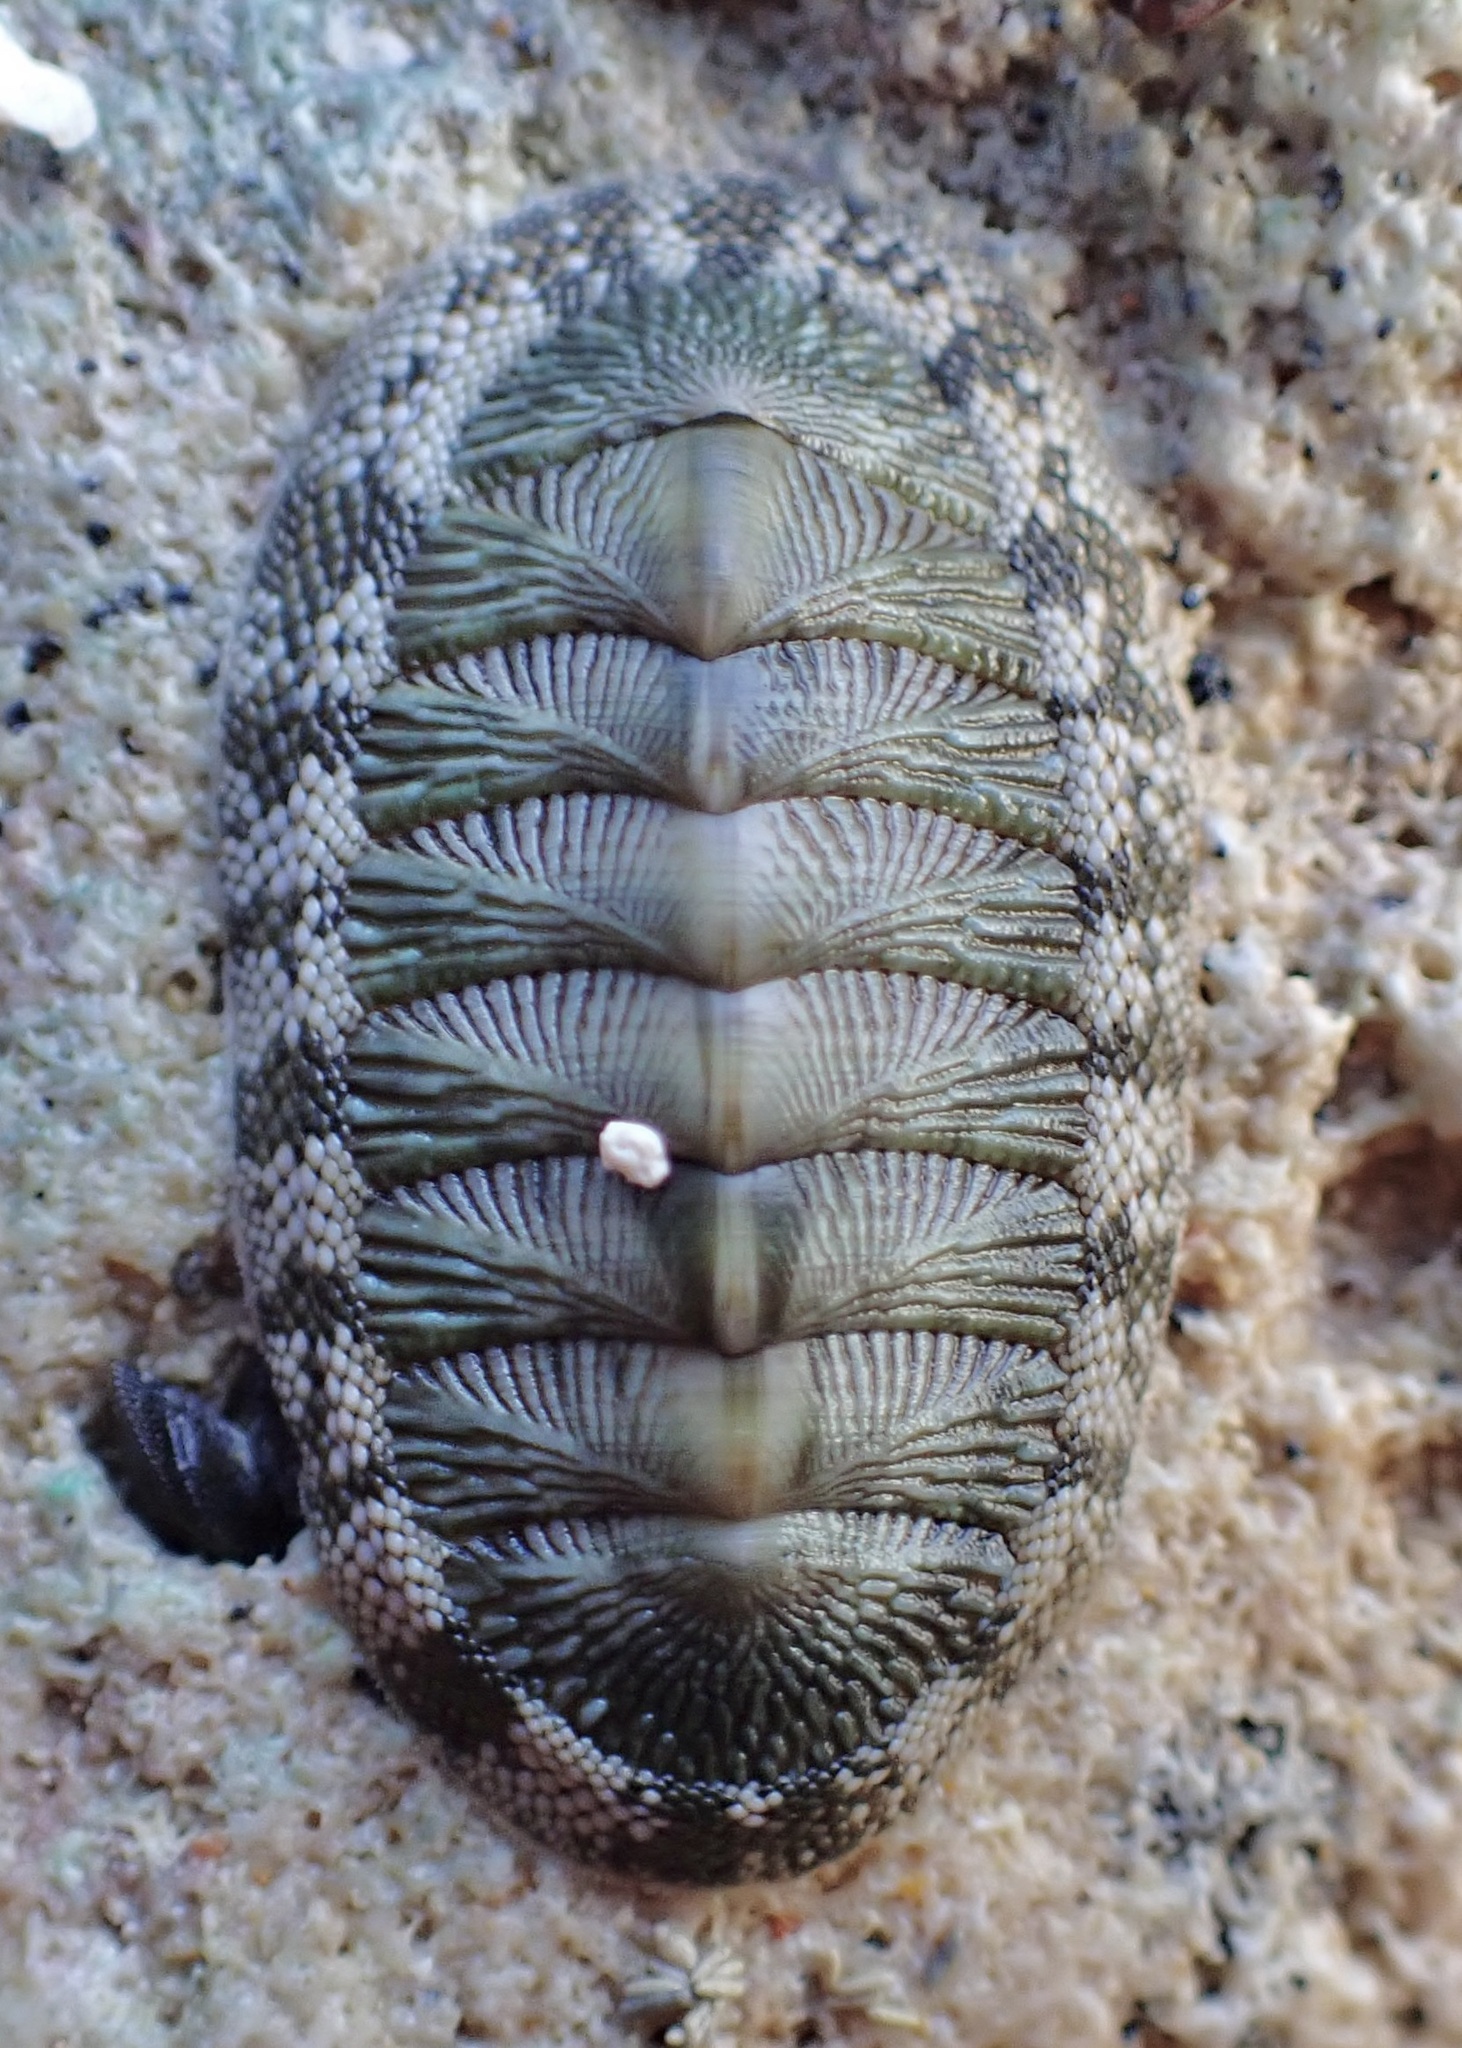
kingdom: Animalia
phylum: Mollusca
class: Polyplacophora
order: Chitonida
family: Chitonidae
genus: Chiton
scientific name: Chiton tuberculatus
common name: West indian green chiton
